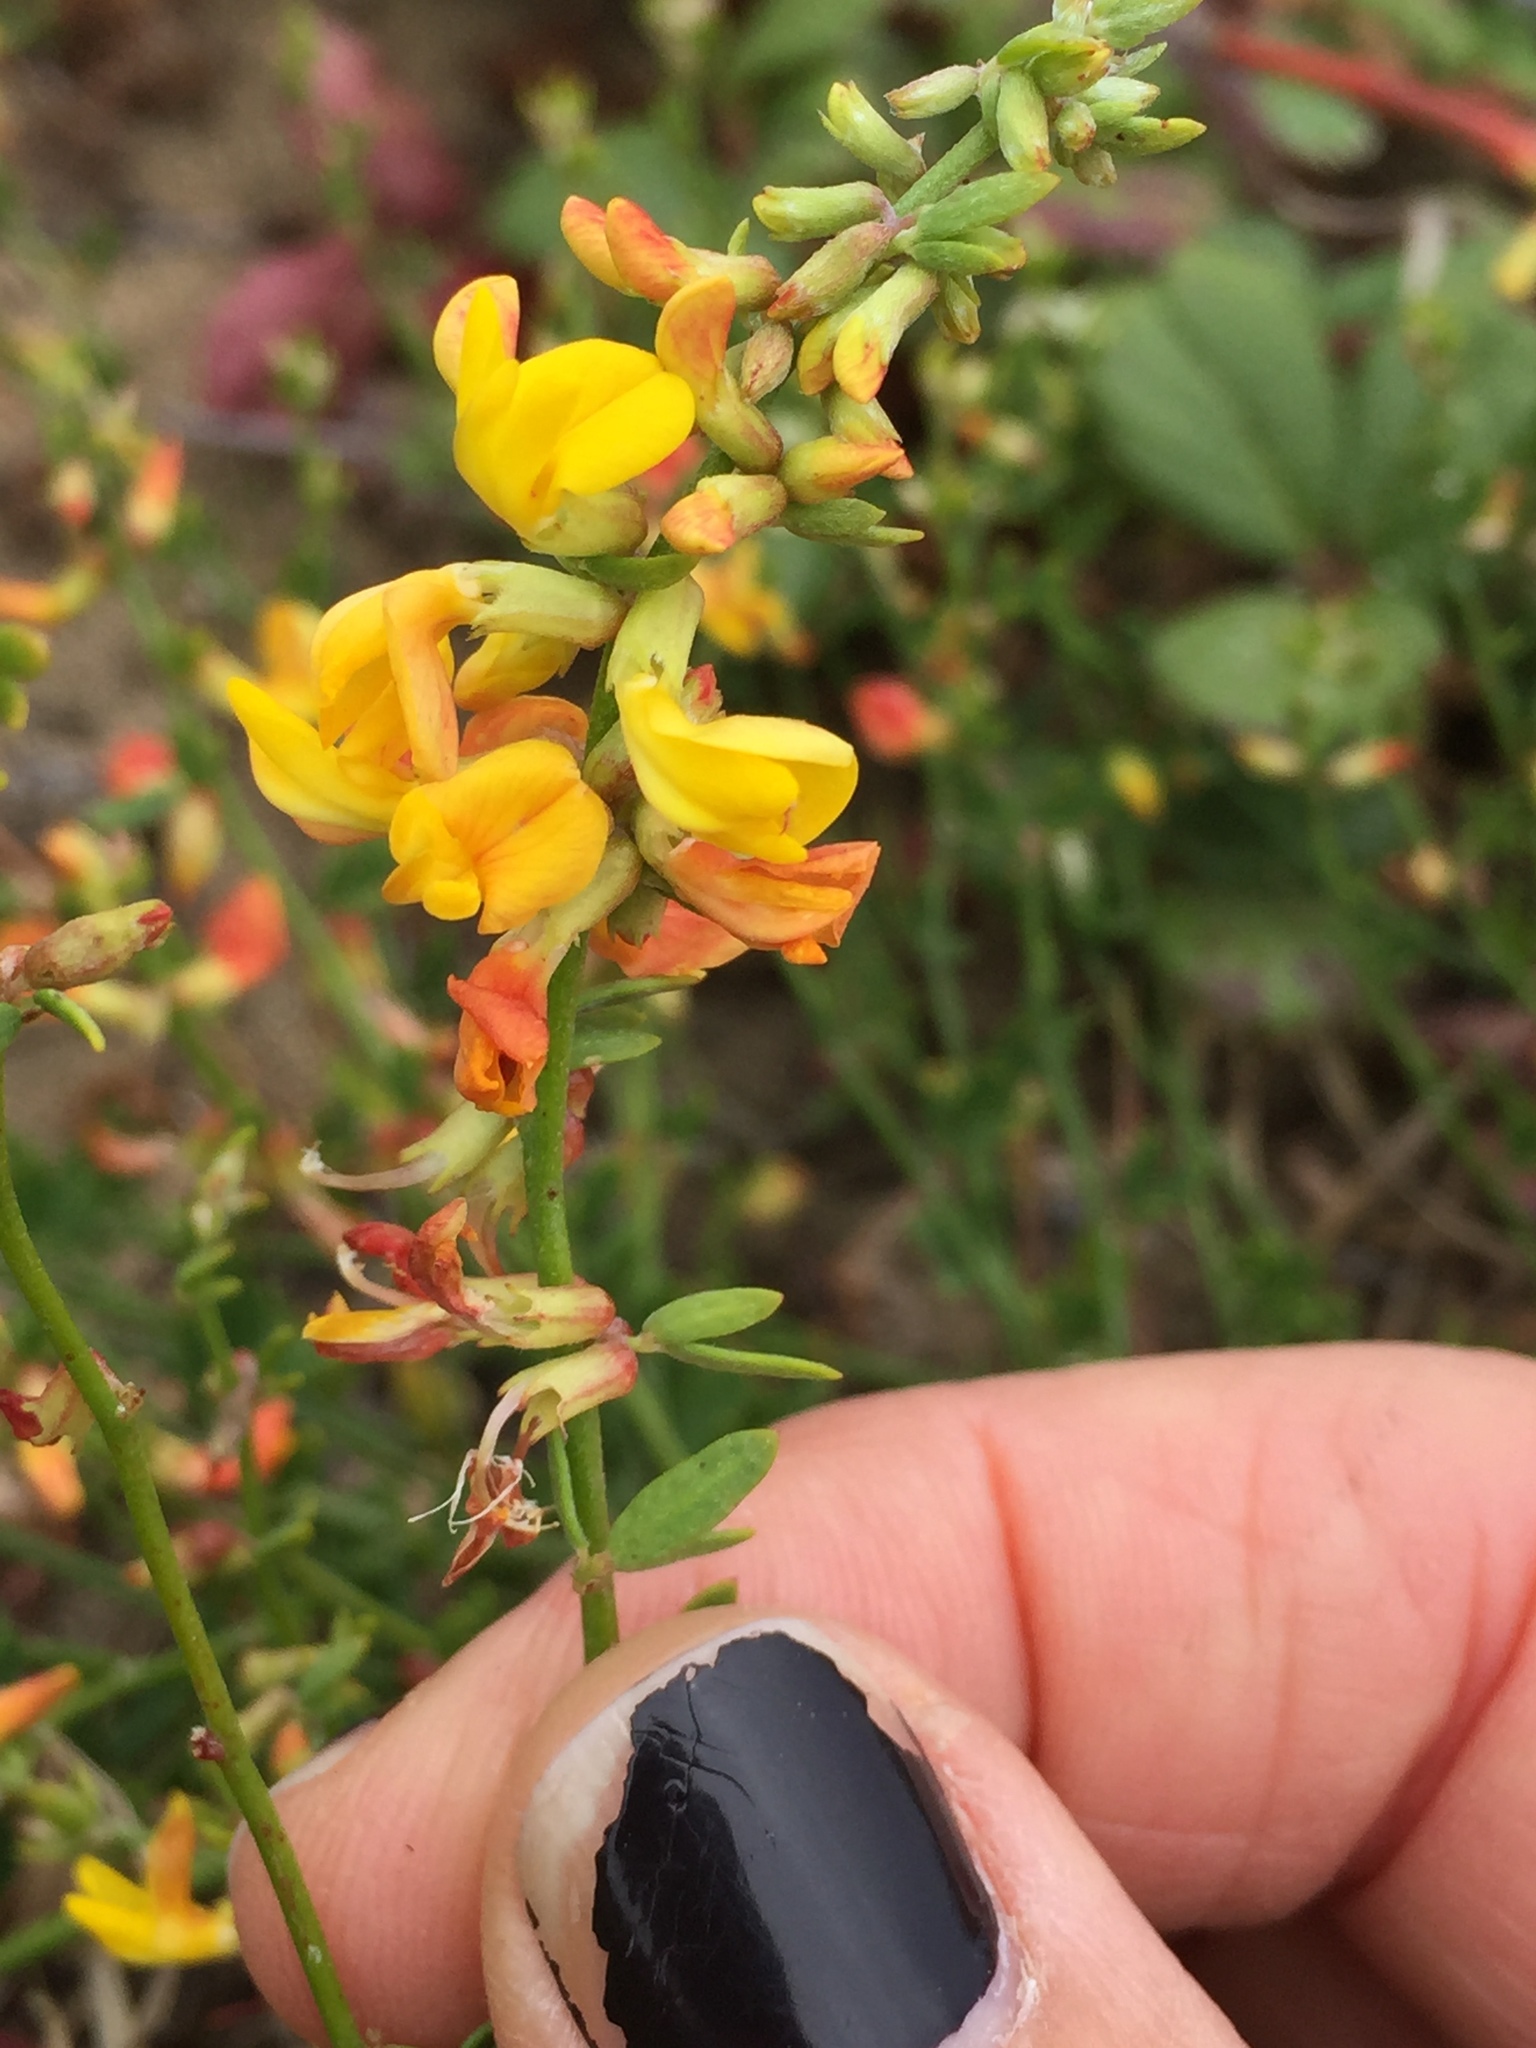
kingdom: Plantae
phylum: Tracheophyta
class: Magnoliopsida
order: Fabales
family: Fabaceae
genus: Acmispon
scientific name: Acmispon glaber
